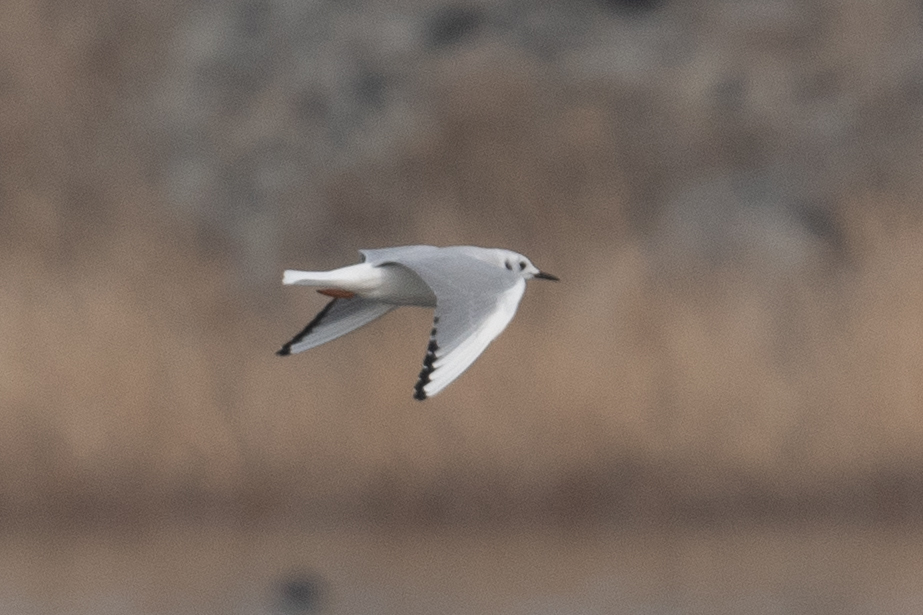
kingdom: Animalia
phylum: Chordata
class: Aves
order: Charadriiformes
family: Laridae
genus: Chroicocephalus
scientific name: Chroicocephalus philadelphia
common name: Bonaparte's gull
